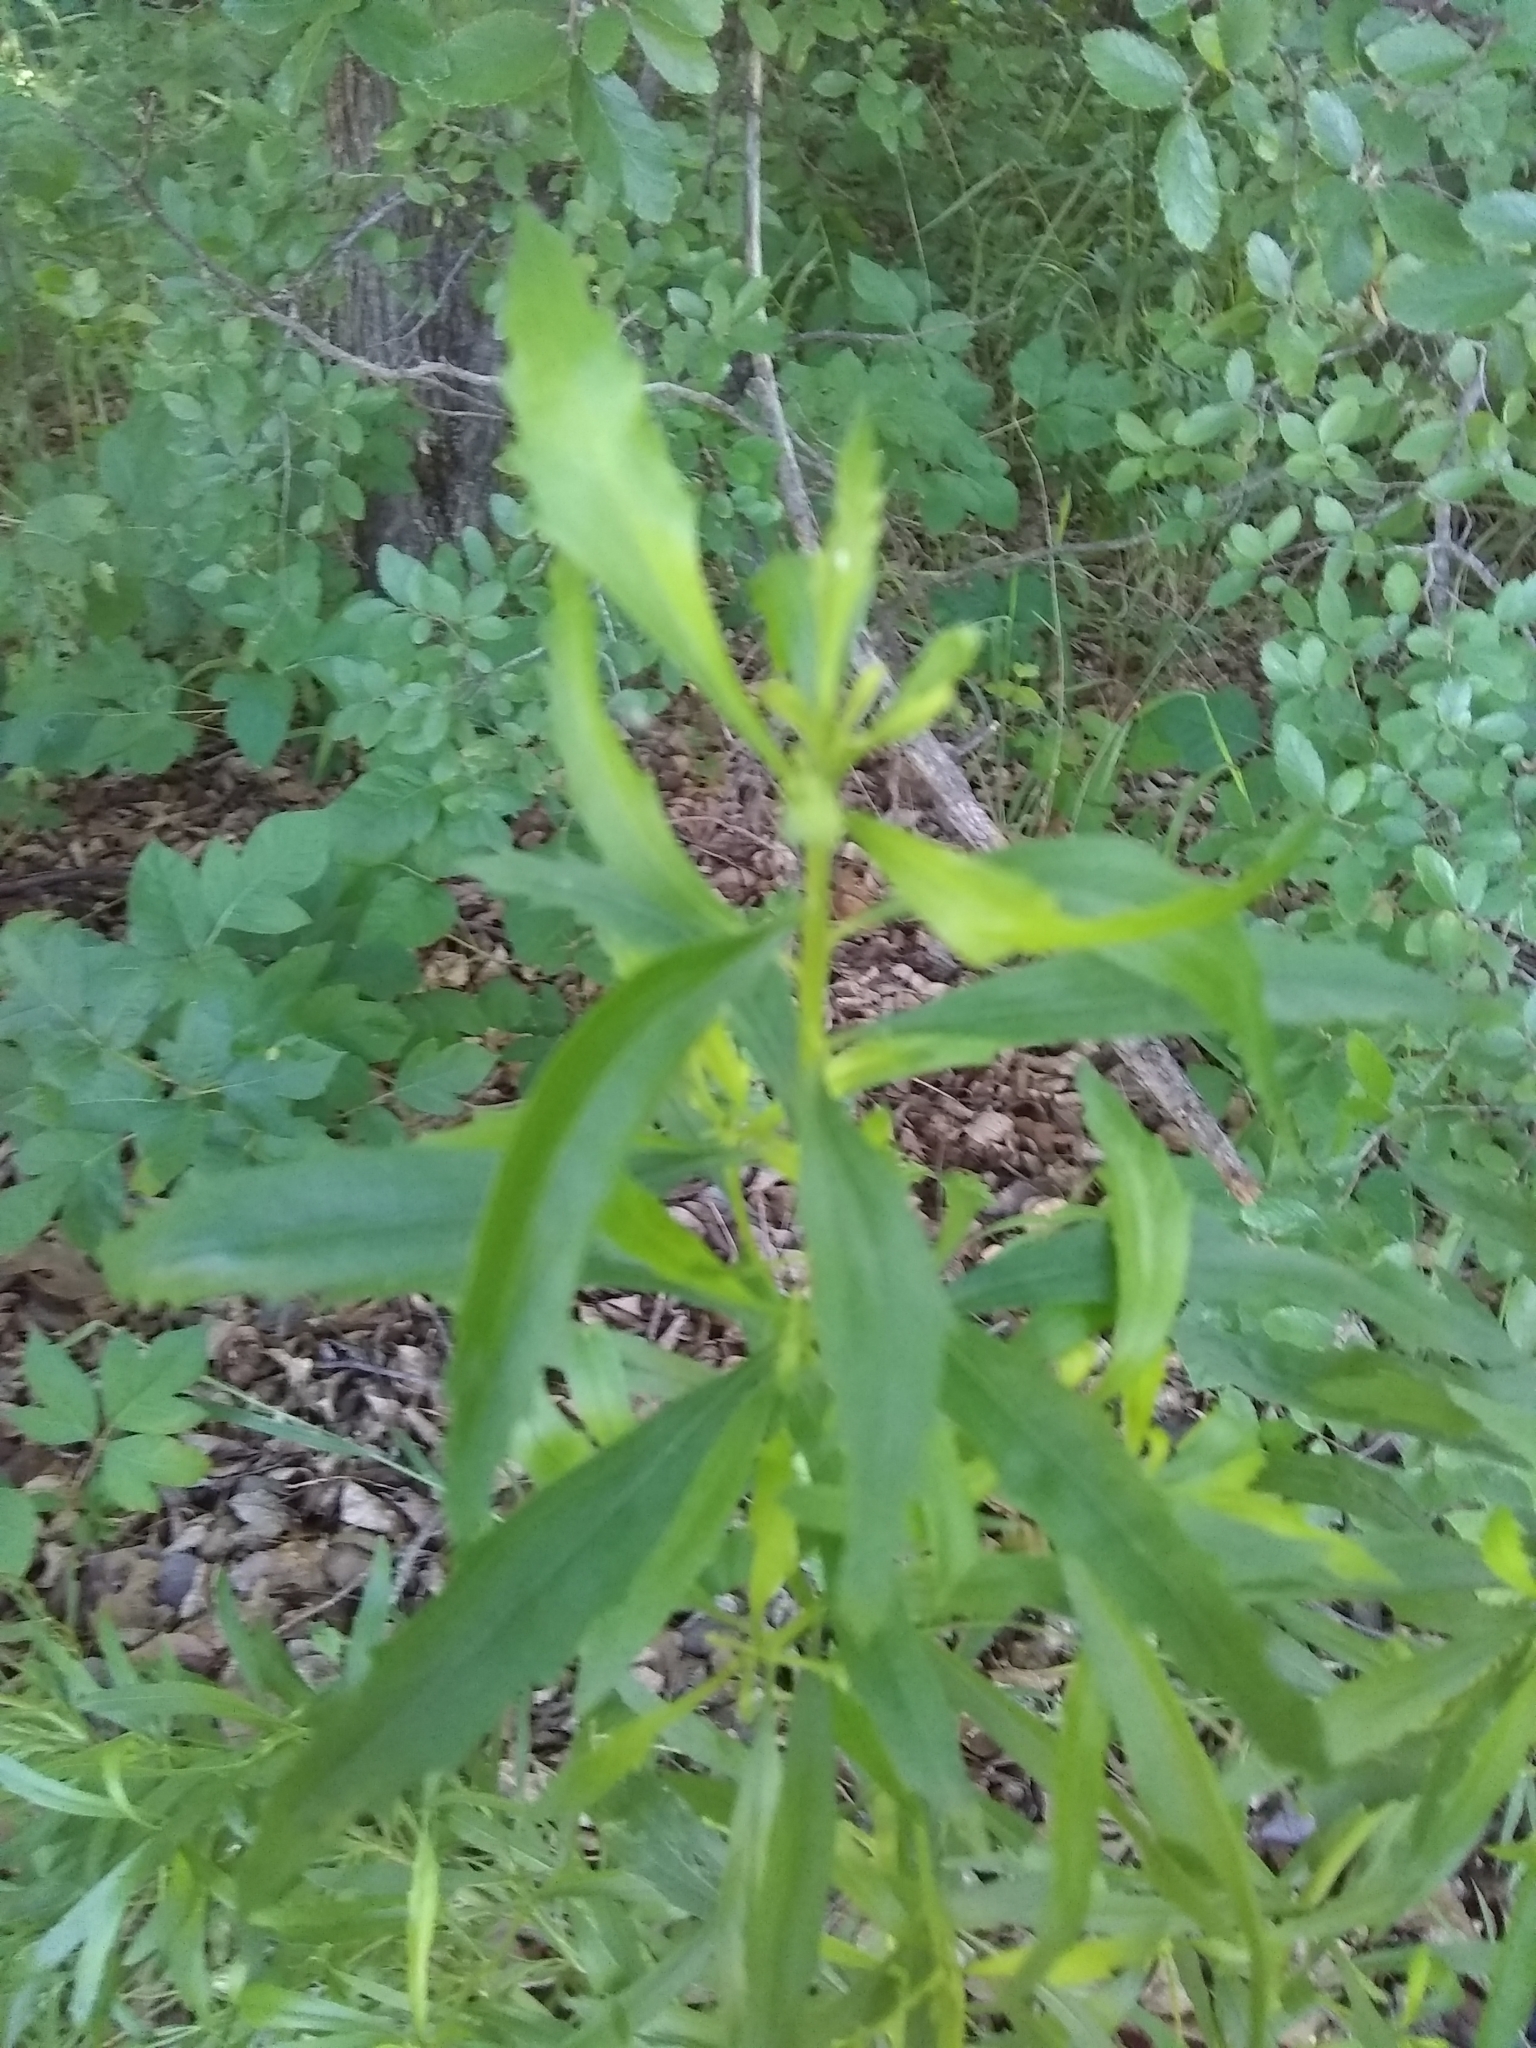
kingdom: Plantae
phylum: Tracheophyta
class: Magnoliopsida
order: Asterales
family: Asteraceae
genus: Baccharis
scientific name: Baccharis neglecta
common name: Roosevelt-weed
